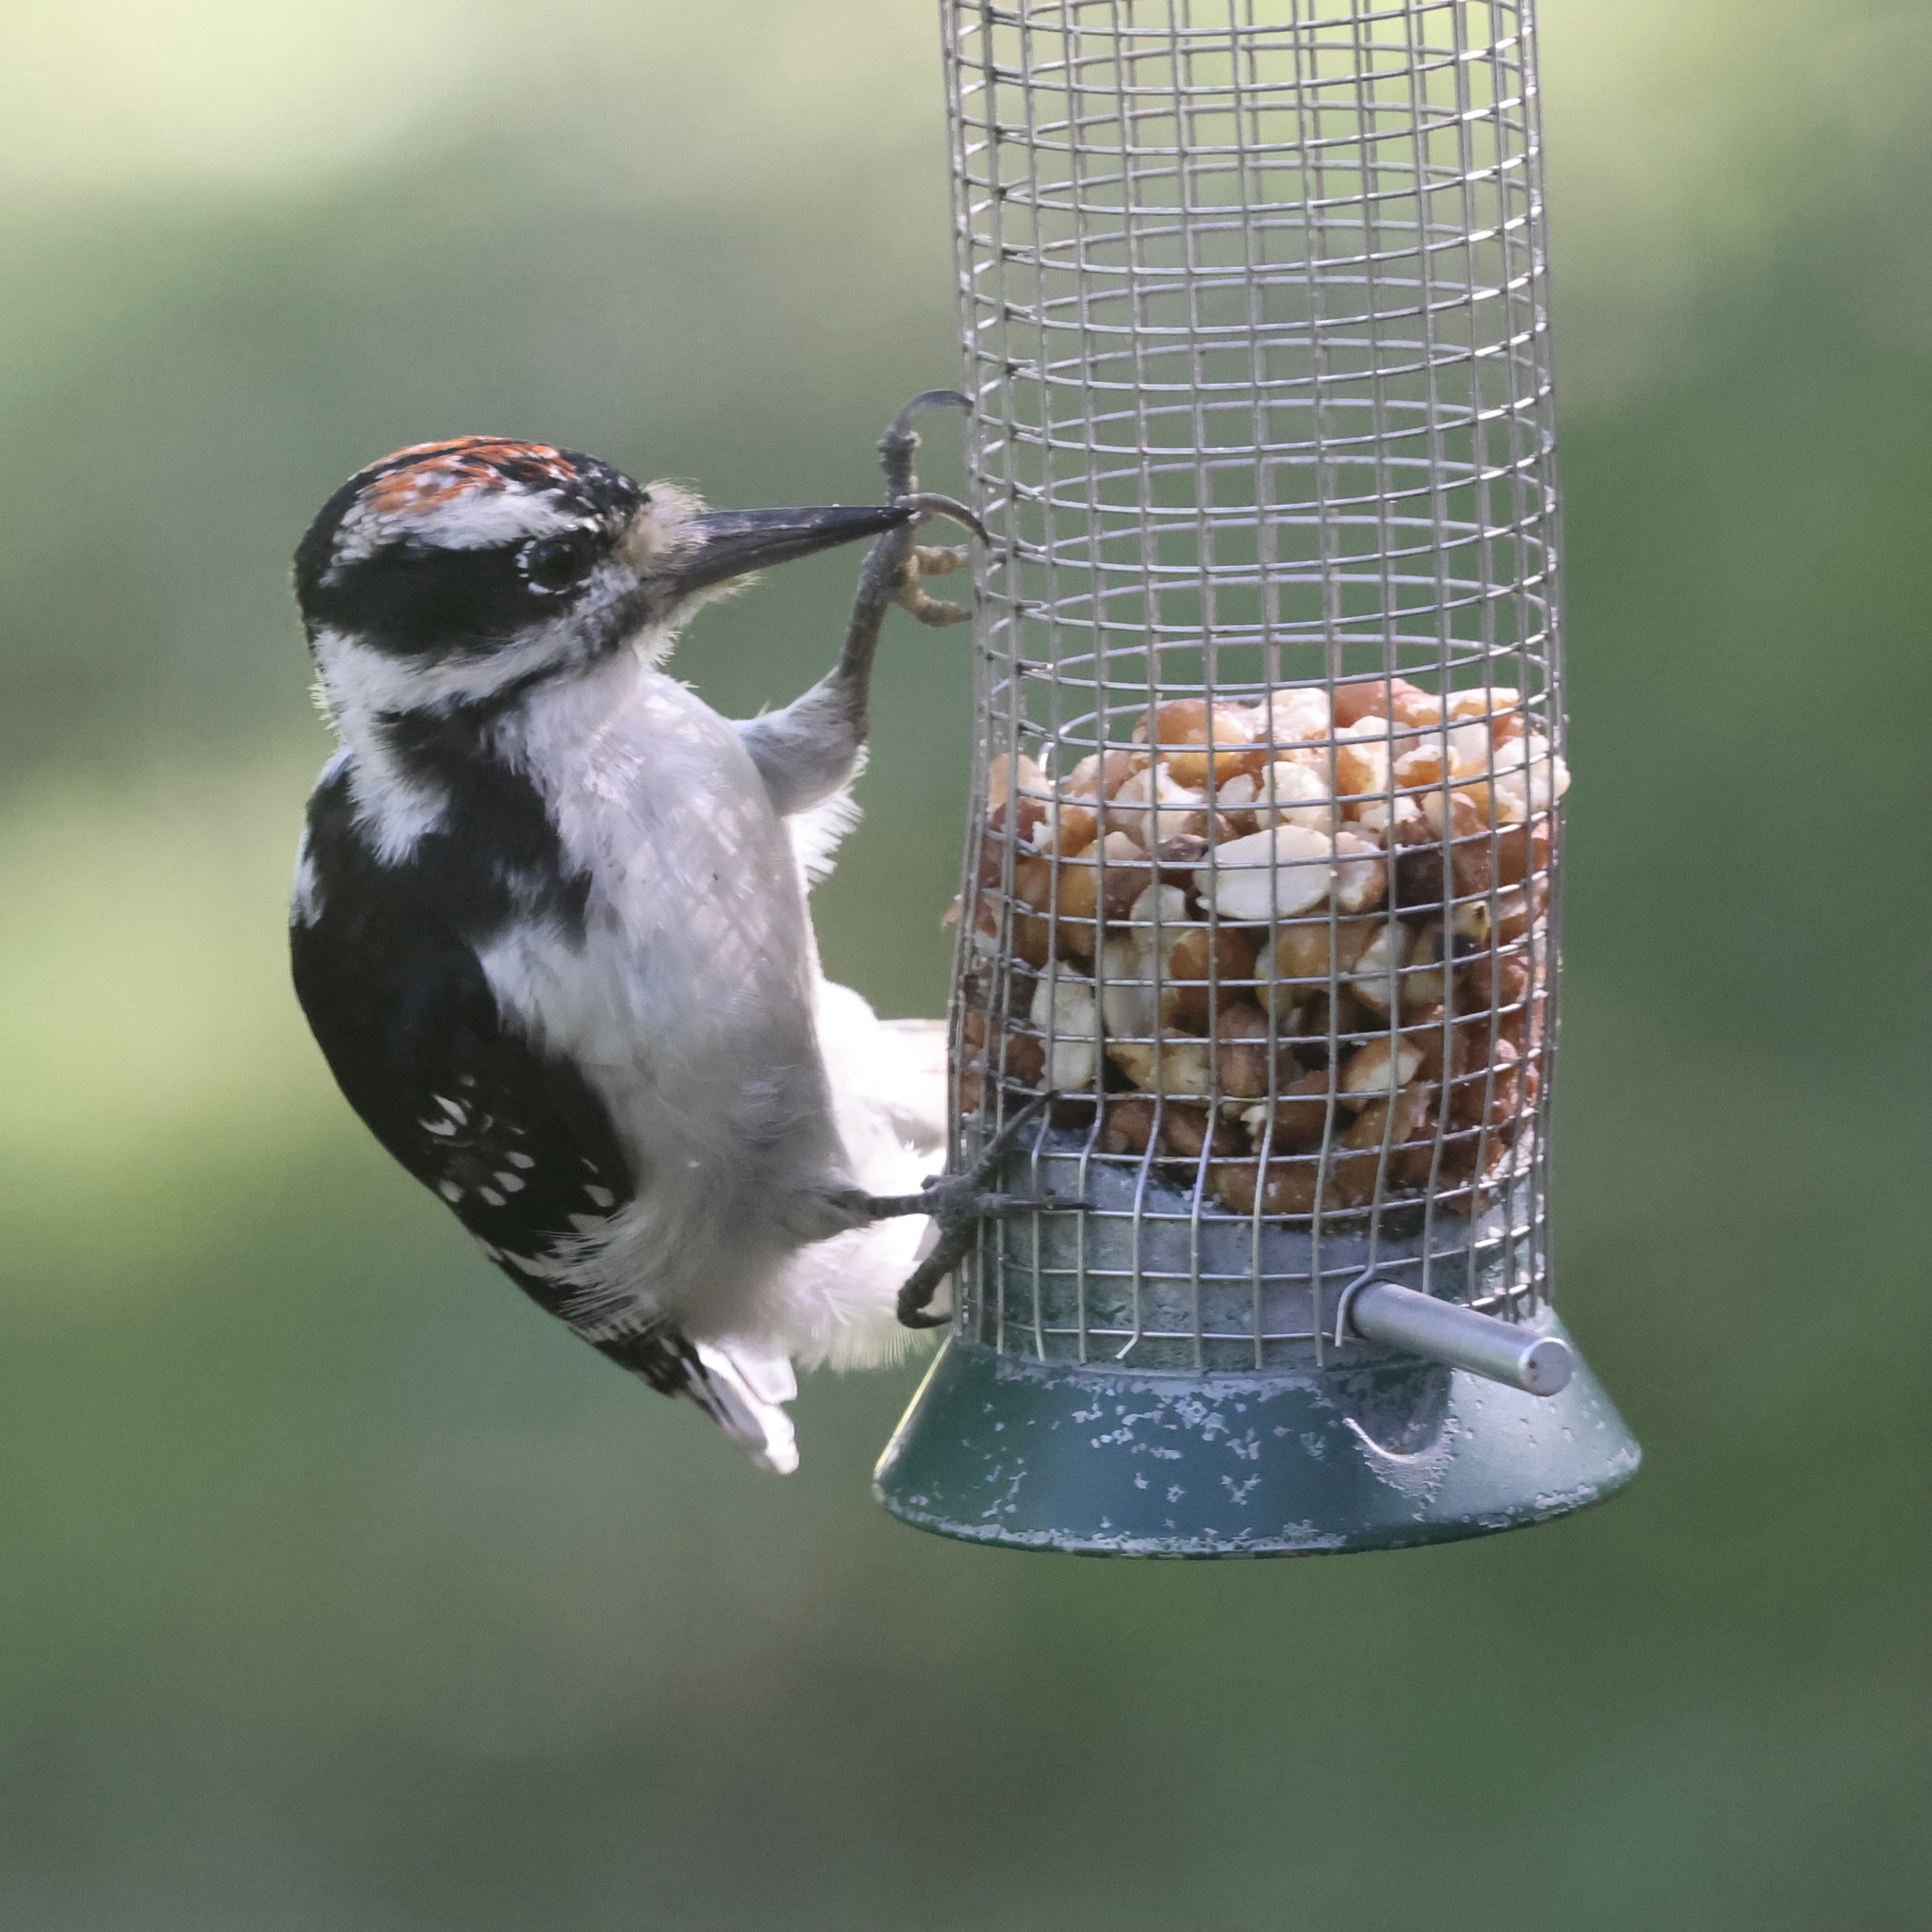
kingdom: Animalia
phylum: Chordata
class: Aves
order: Piciformes
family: Picidae
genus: Leuconotopicus
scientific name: Leuconotopicus villosus
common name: Hairy woodpecker
